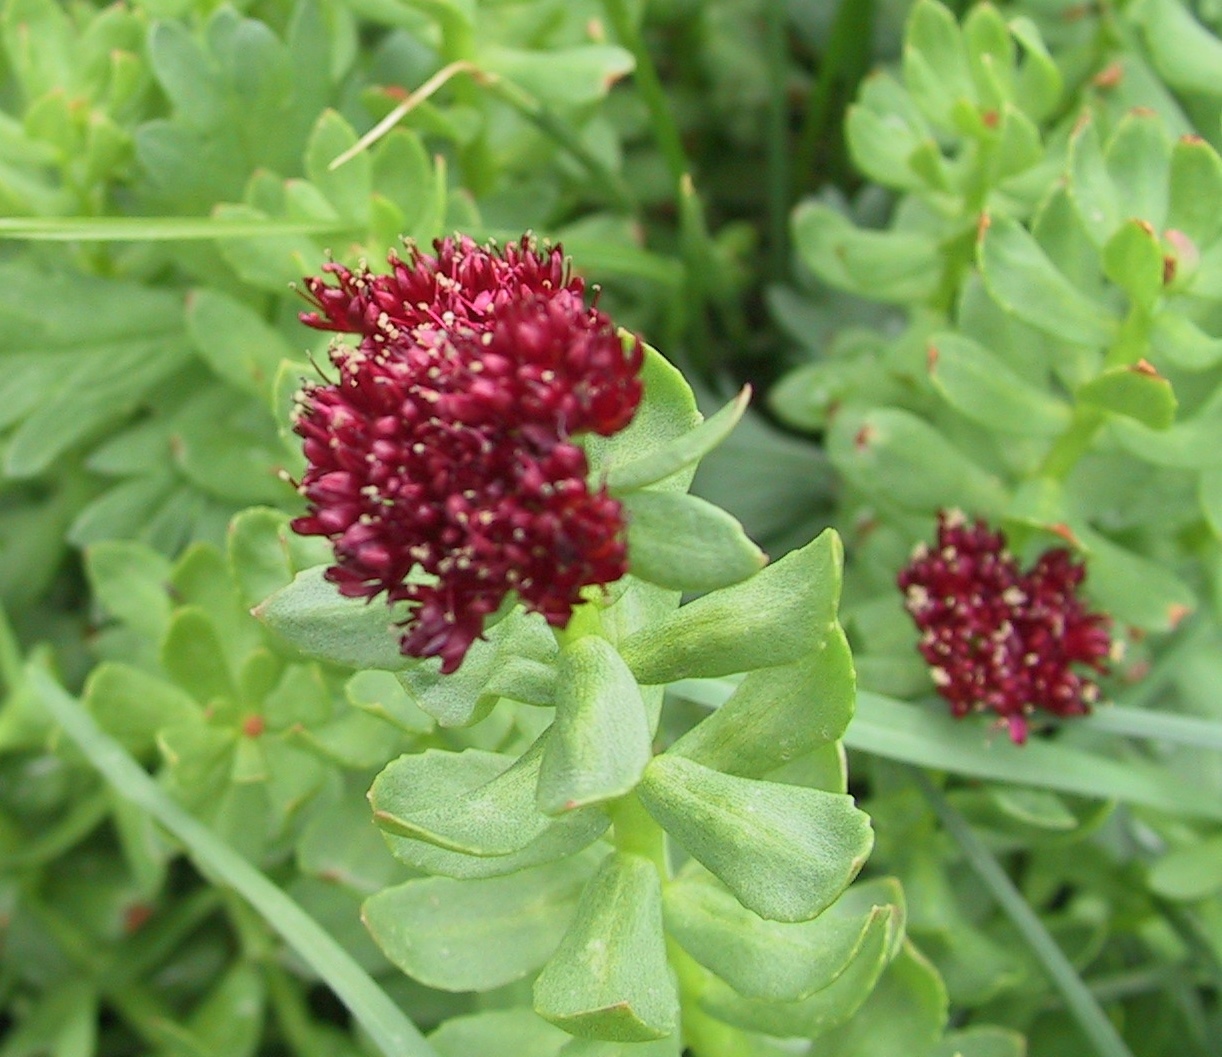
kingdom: Plantae
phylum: Tracheophyta
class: Magnoliopsida
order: Saxifragales
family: Crassulaceae
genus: Rhodiola
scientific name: Rhodiola integrifolia
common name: Western roseroot
